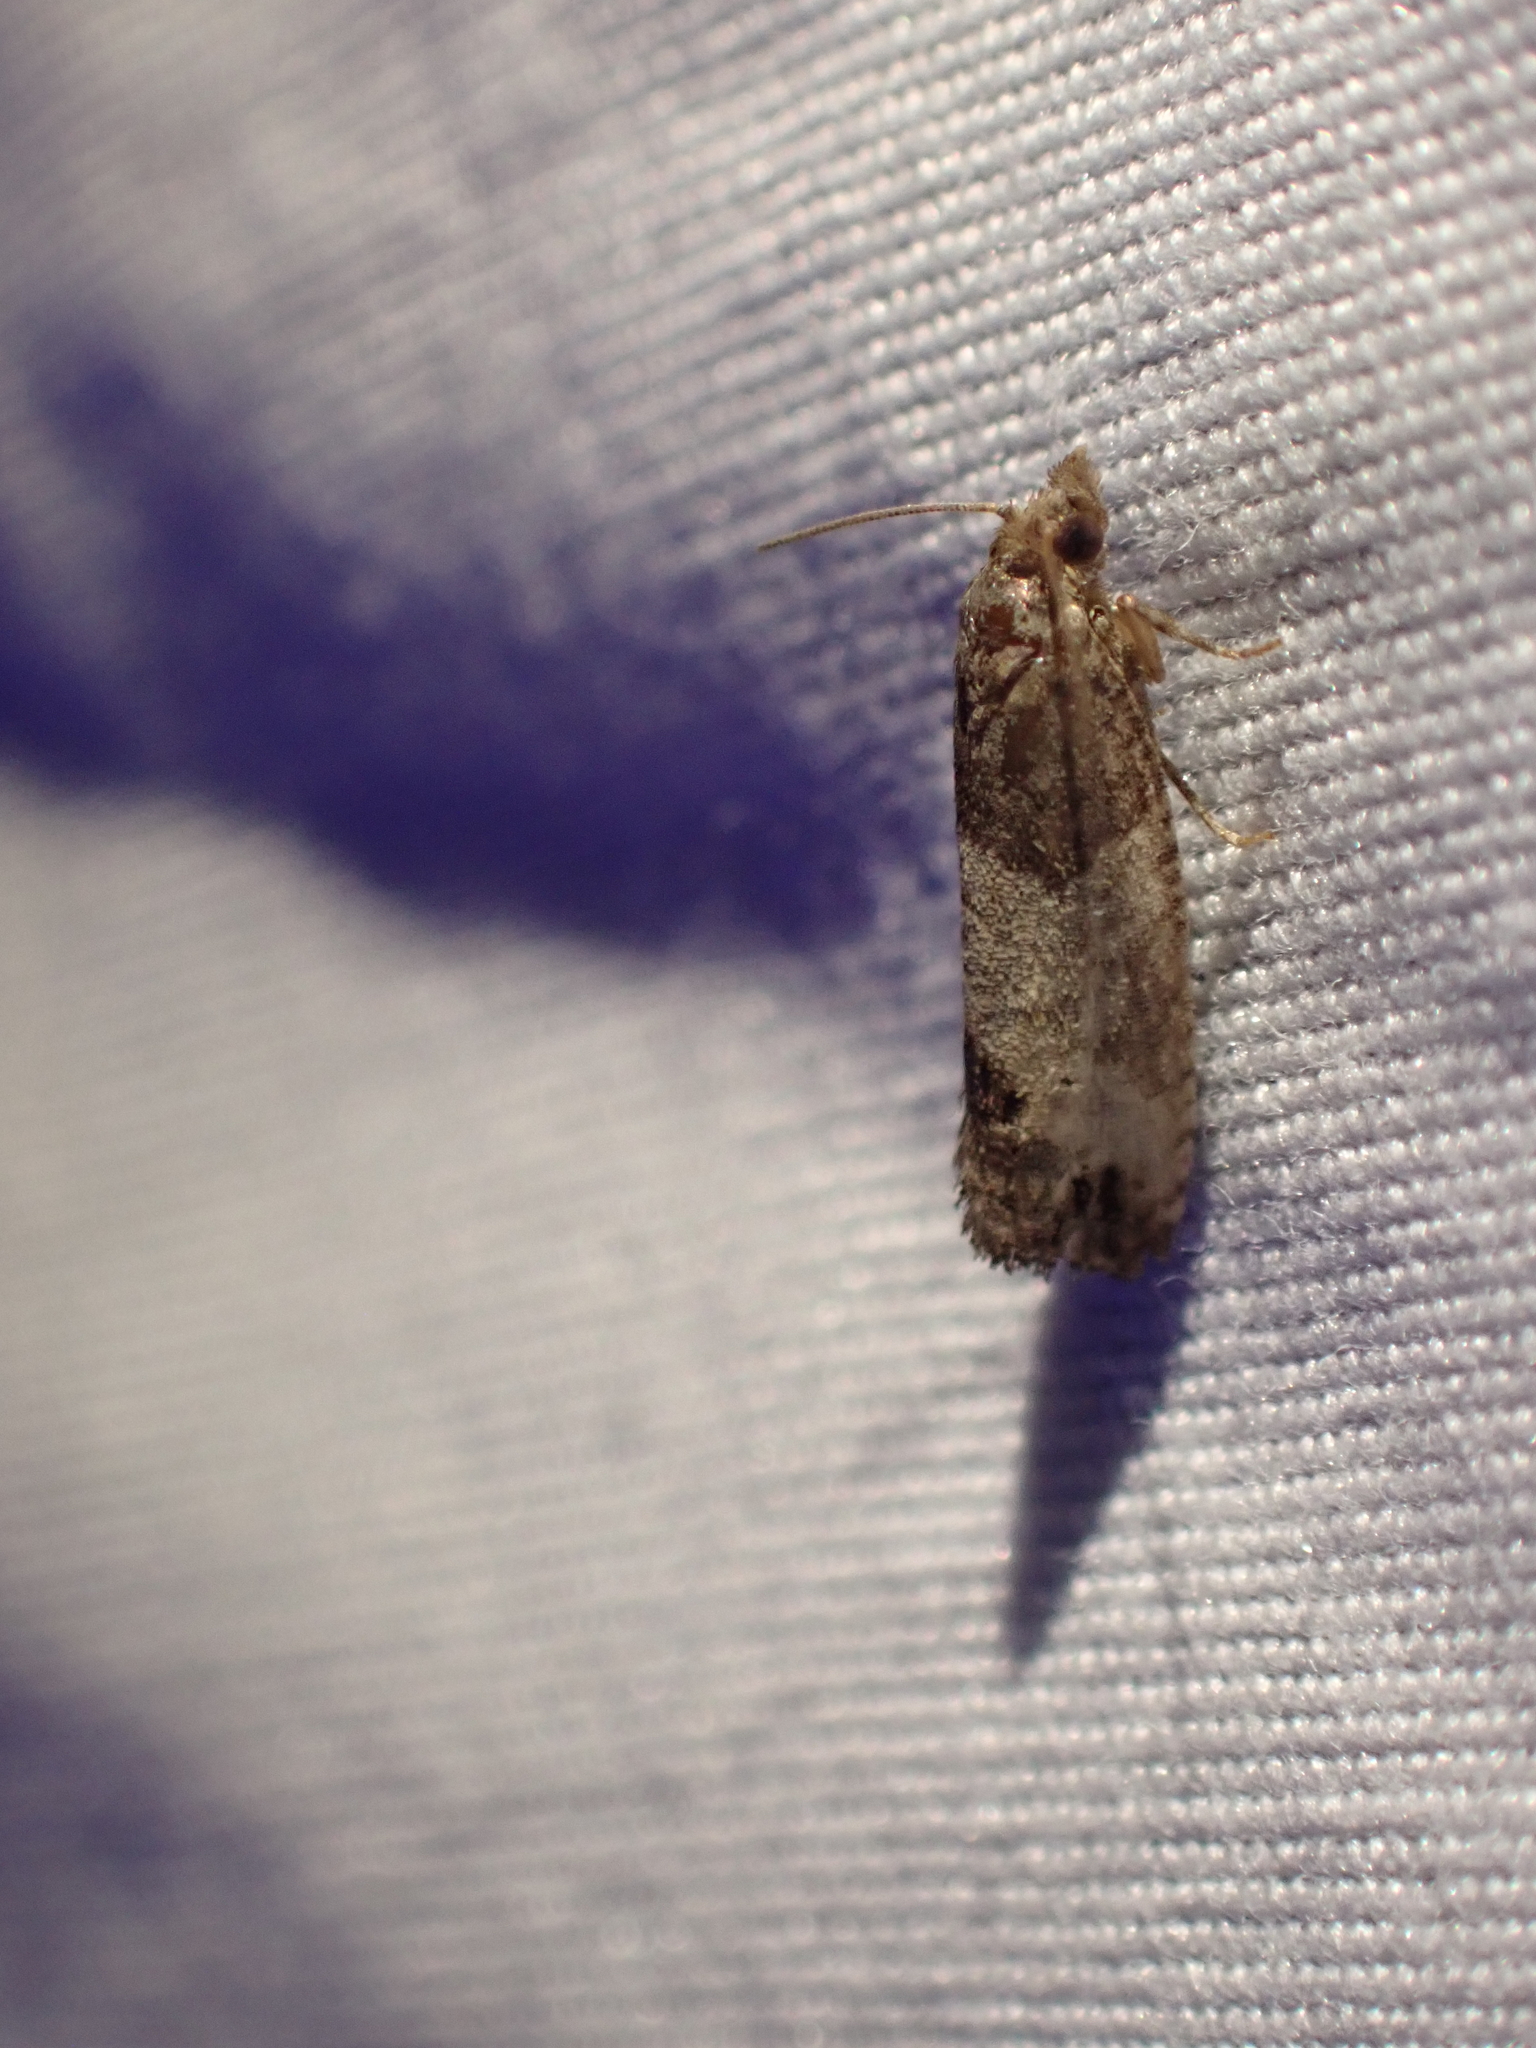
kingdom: Animalia
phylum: Arthropoda
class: Insecta
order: Lepidoptera
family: Tortricidae
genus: Spilonota
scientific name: Spilonota ocellana
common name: Bud moth
